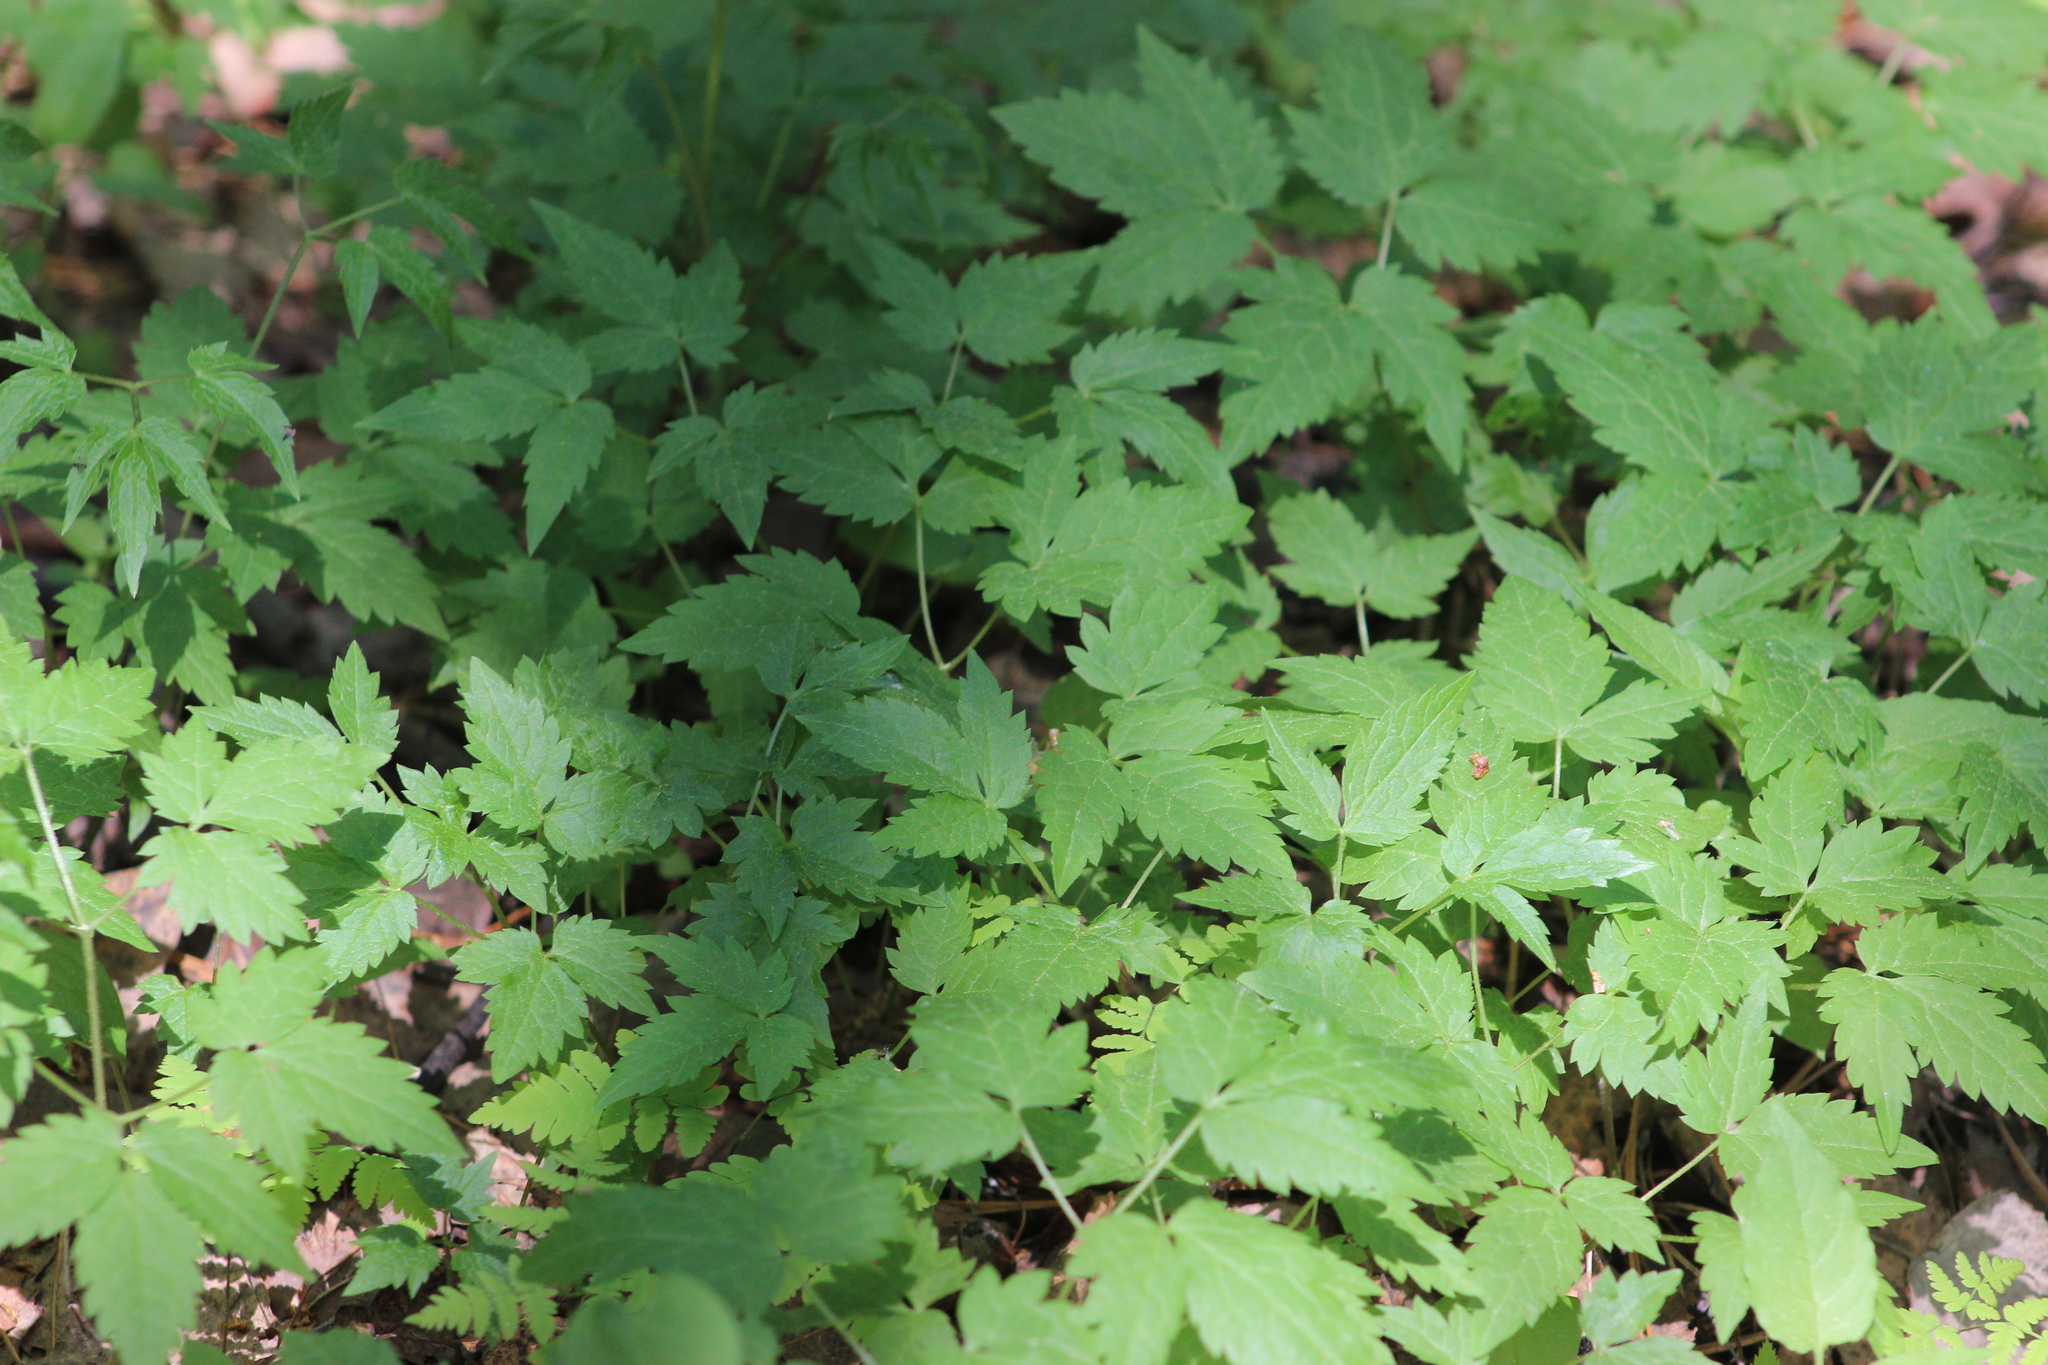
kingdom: Plantae
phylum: Tracheophyta
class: Magnoliopsida
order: Ranunculales
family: Ranunculaceae
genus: Clematis
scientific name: Clematis sibirica
